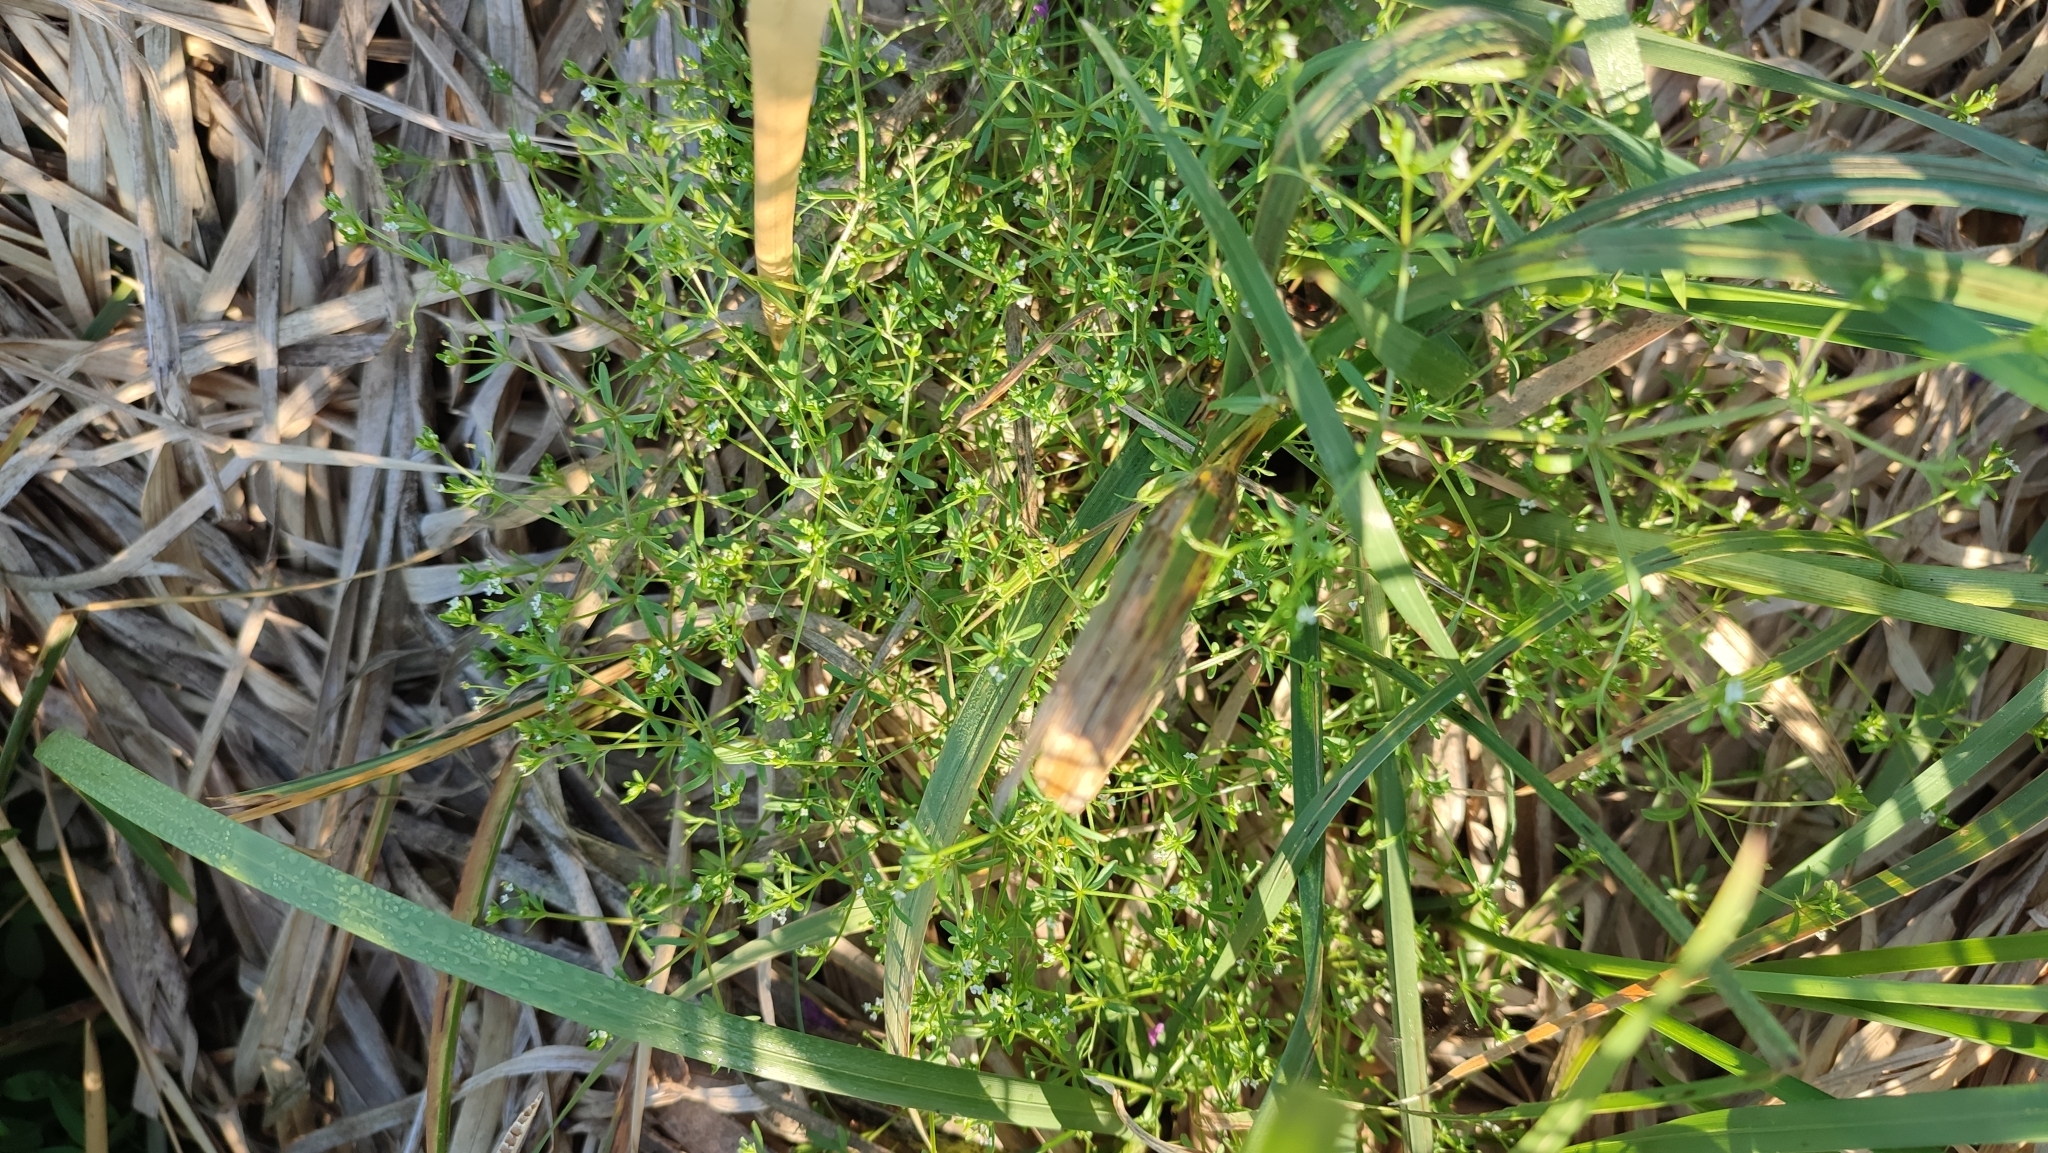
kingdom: Plantae
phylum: Tracheophyta
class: Magnoliopsida
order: Gentianales
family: Rubiaceae
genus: Galium
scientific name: Galium trifidum
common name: Small bedstraw
